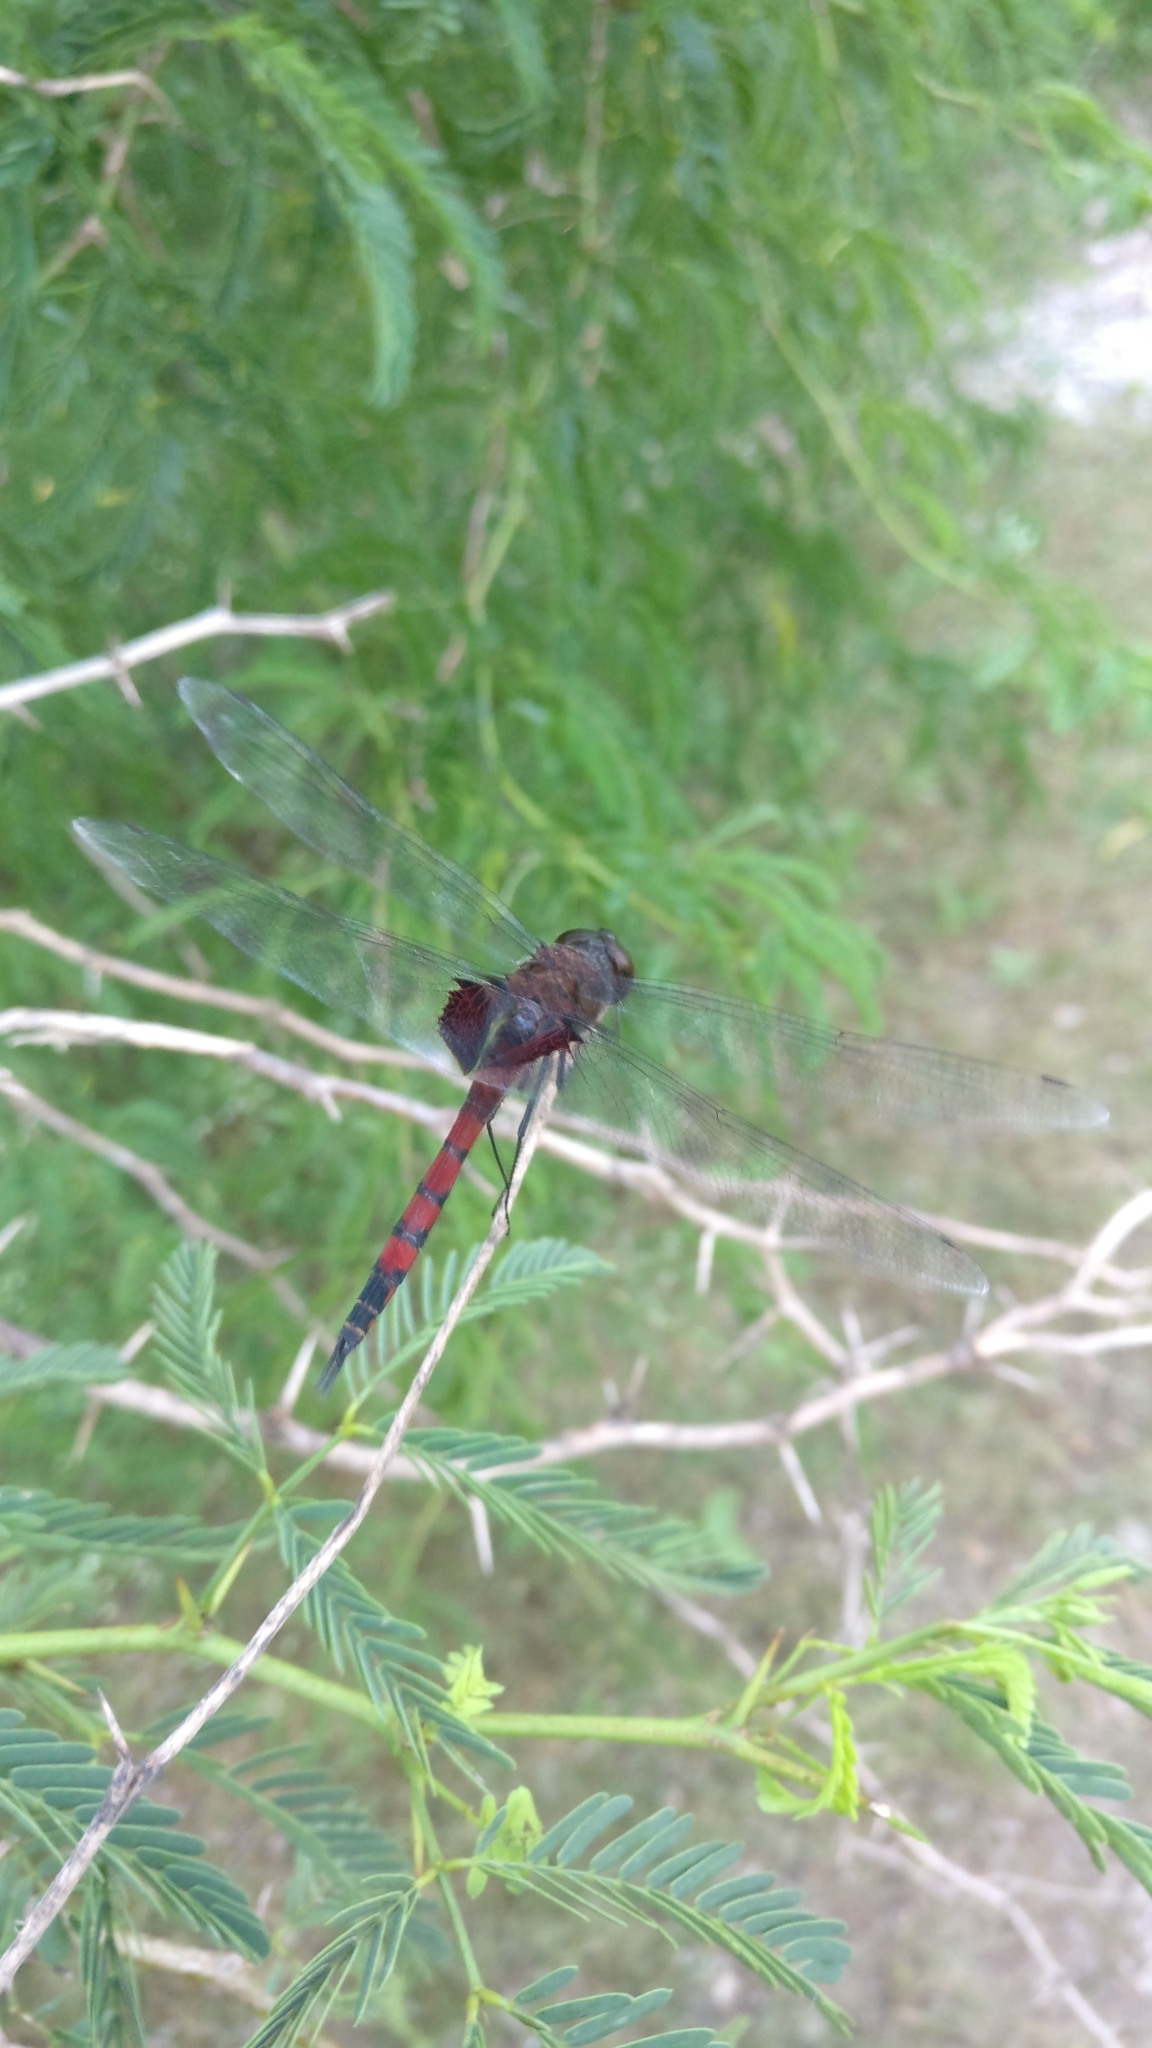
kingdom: Animalia
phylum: Arthropoda
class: Insecta
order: Odonata
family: Libellulidae
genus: Tramea
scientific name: Tramea limbata
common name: Ferruginous glider
